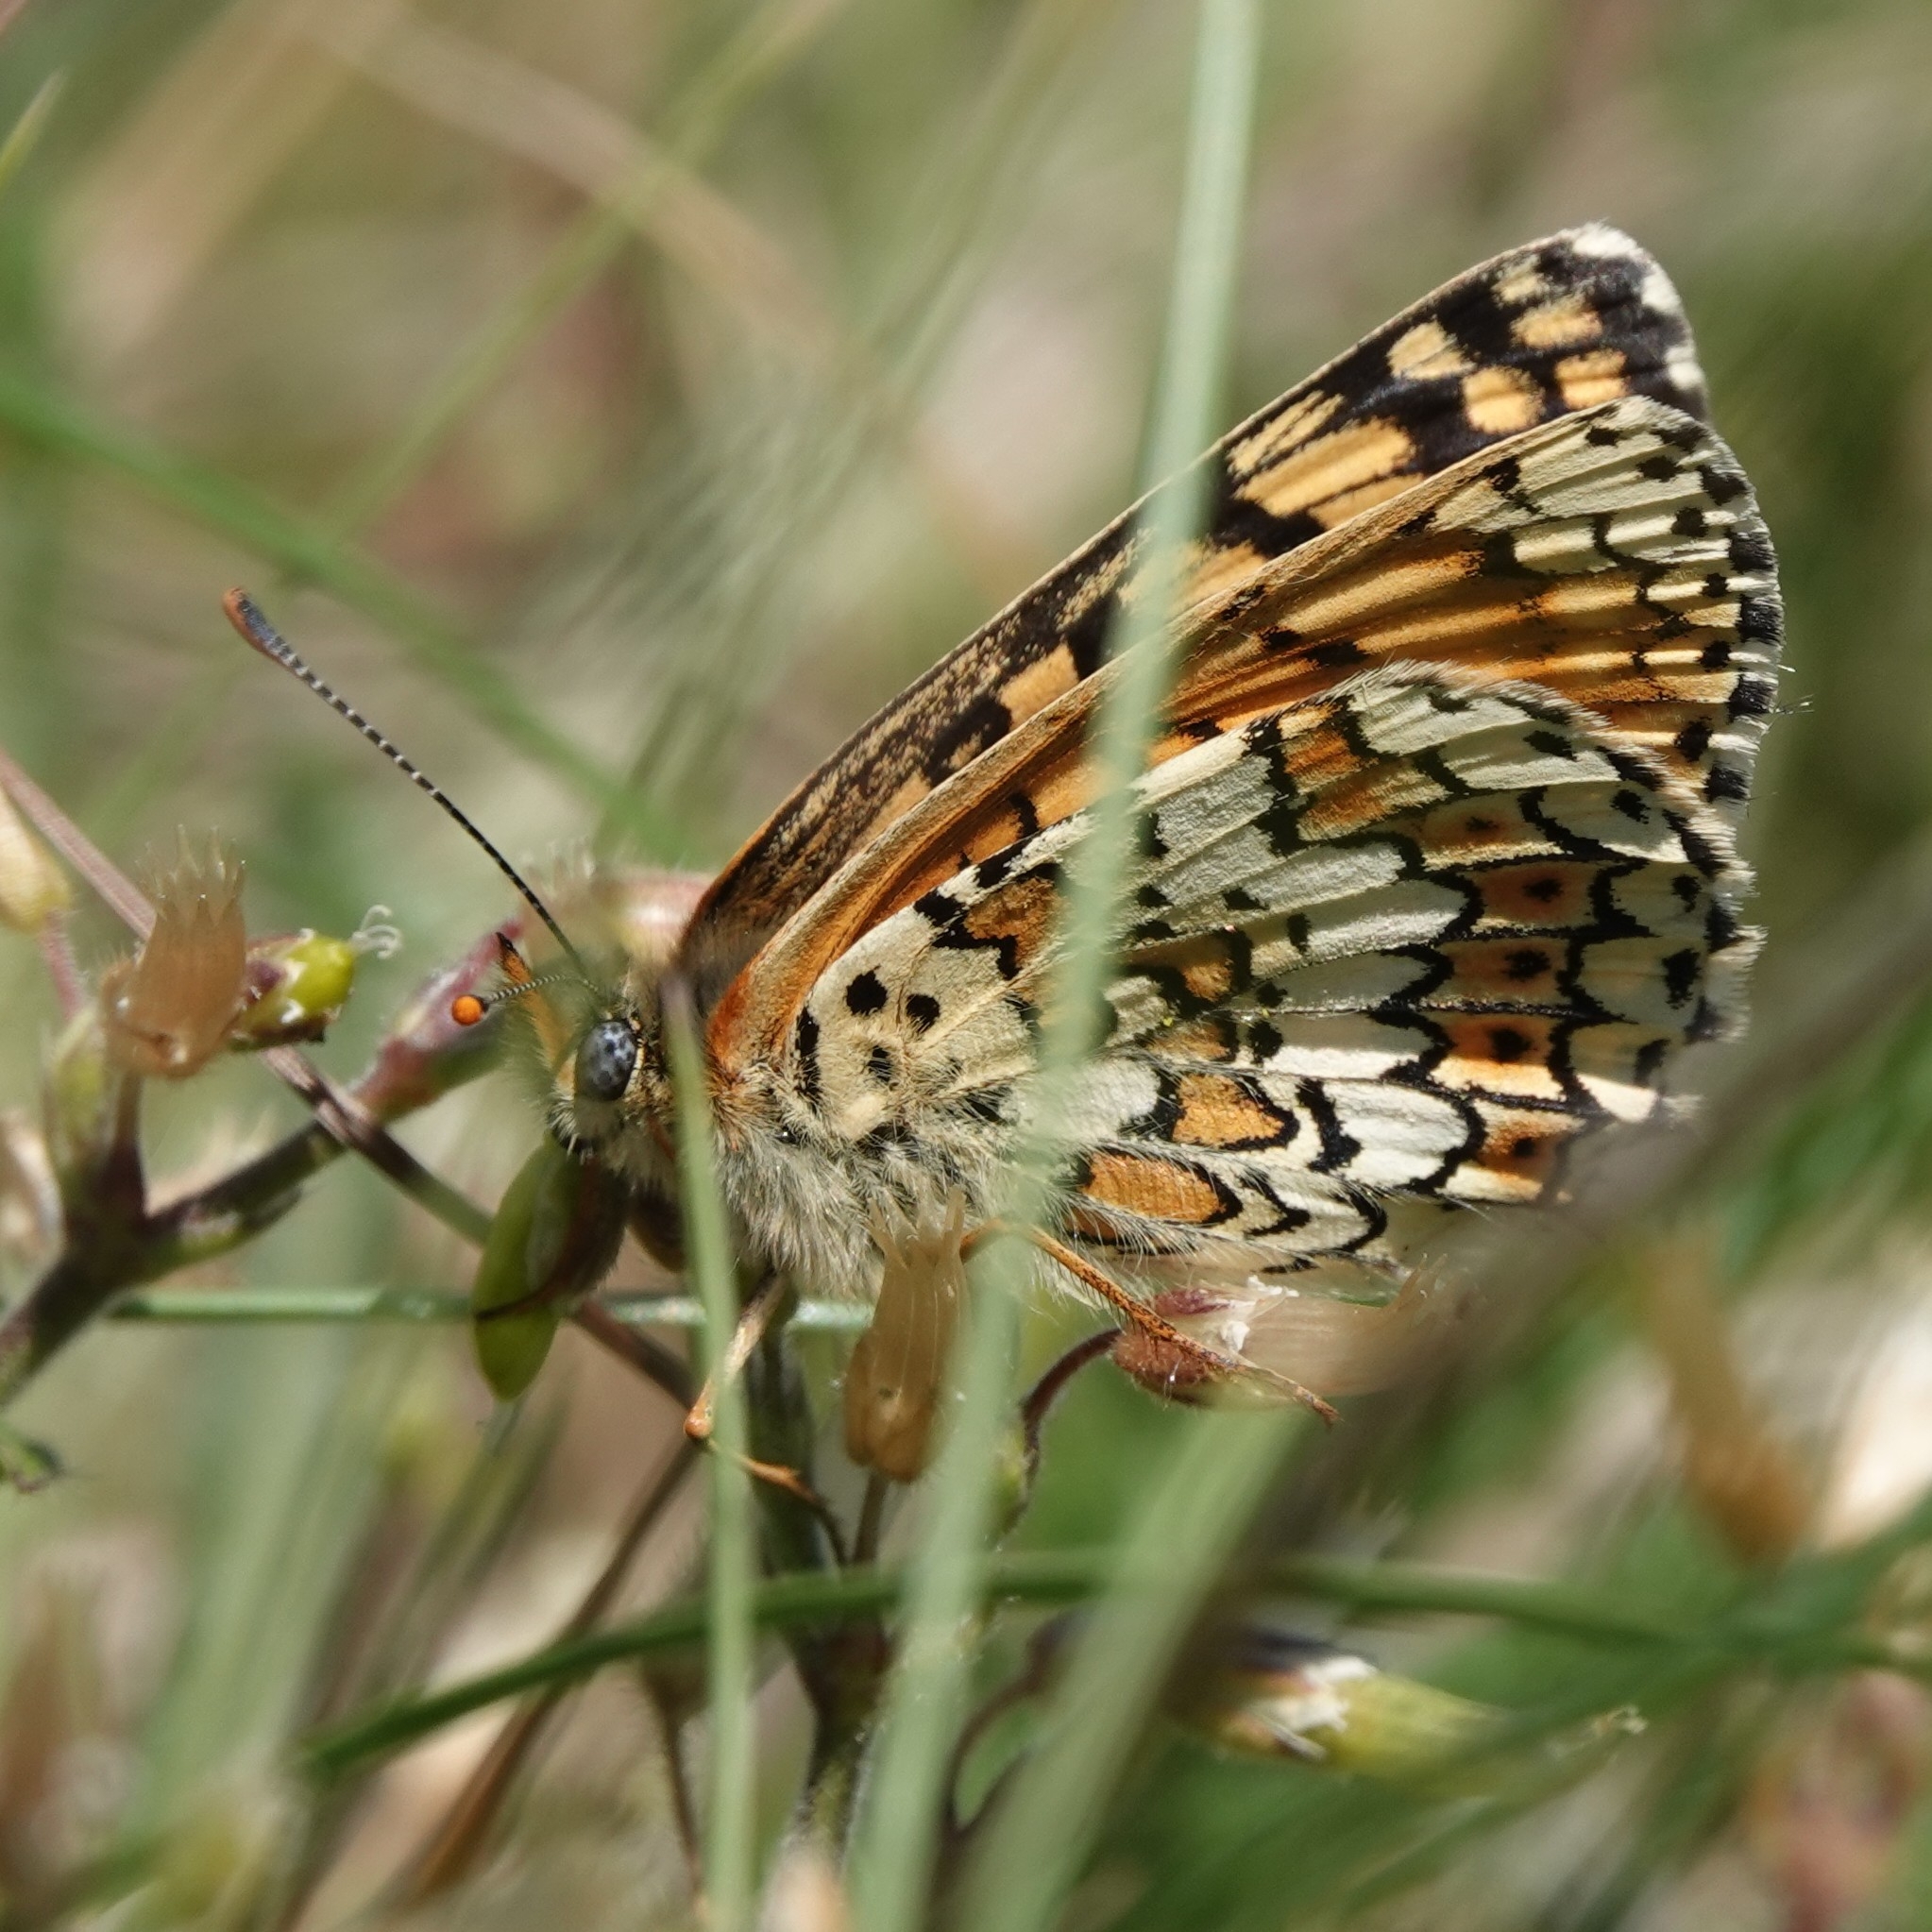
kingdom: Animalia
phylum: Arthropoda
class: Insecta
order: Lepidoptera
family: Nymphalidae
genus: Melitaea
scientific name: Melitaea cinxia
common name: Glanville fritillary
